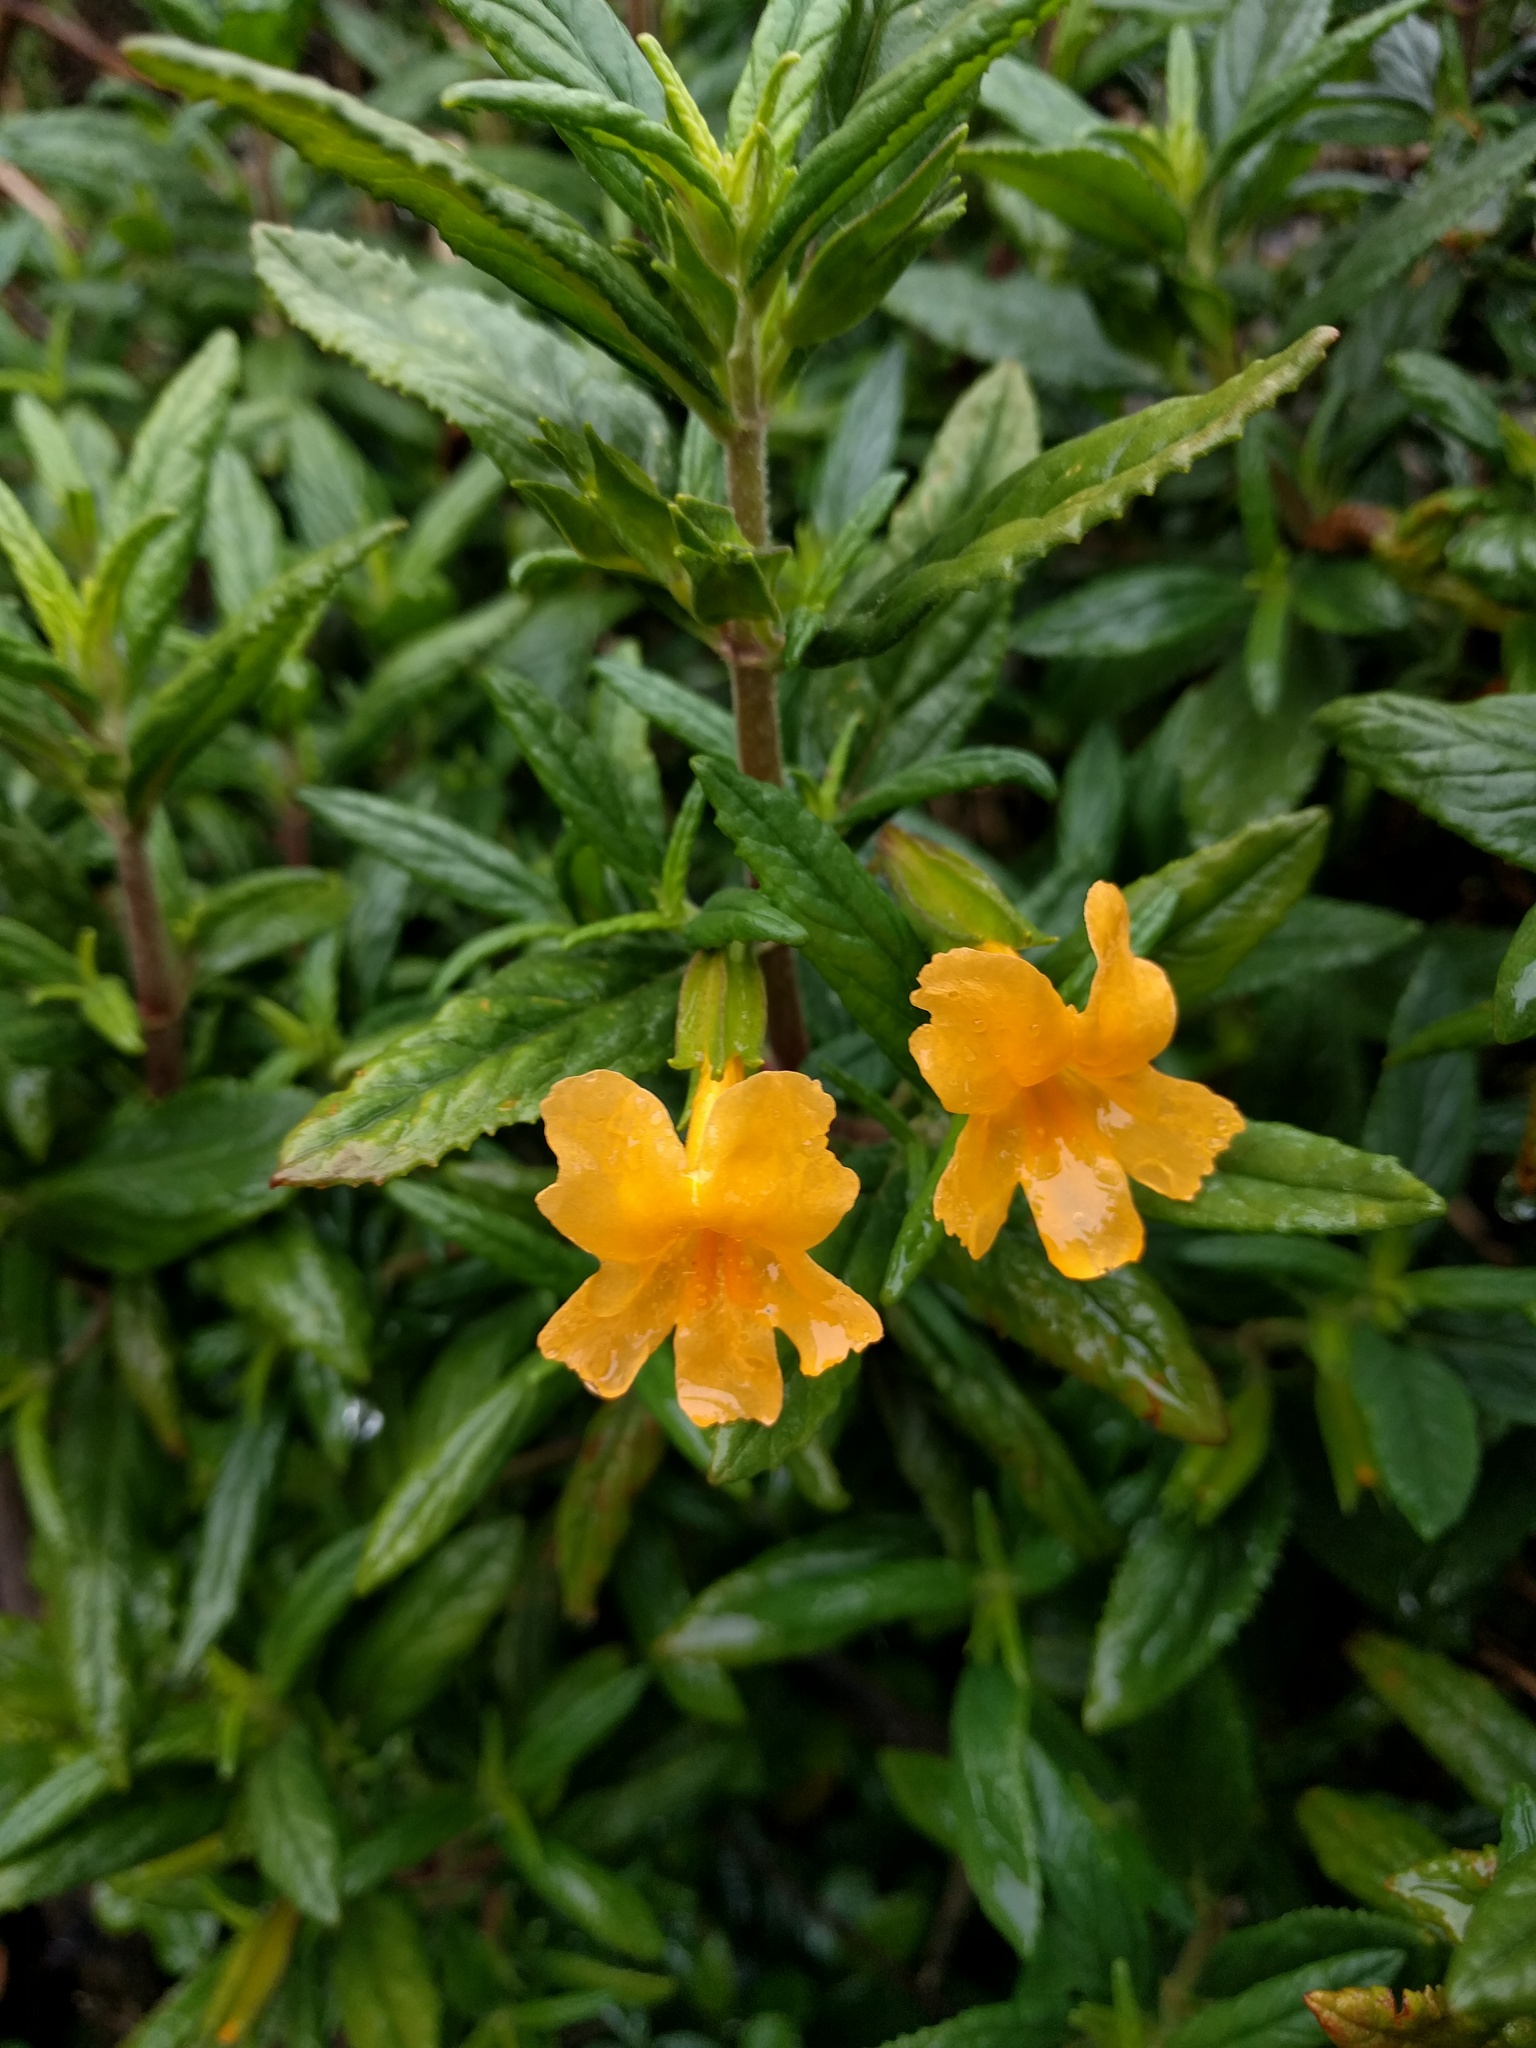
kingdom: Plantae
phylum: Tracheophyta
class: Magnoliopsida
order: Lamiales
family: Phrymaceae
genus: Diplacus
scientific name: Diplacus aurantiacus
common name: Bush monkey-flower
